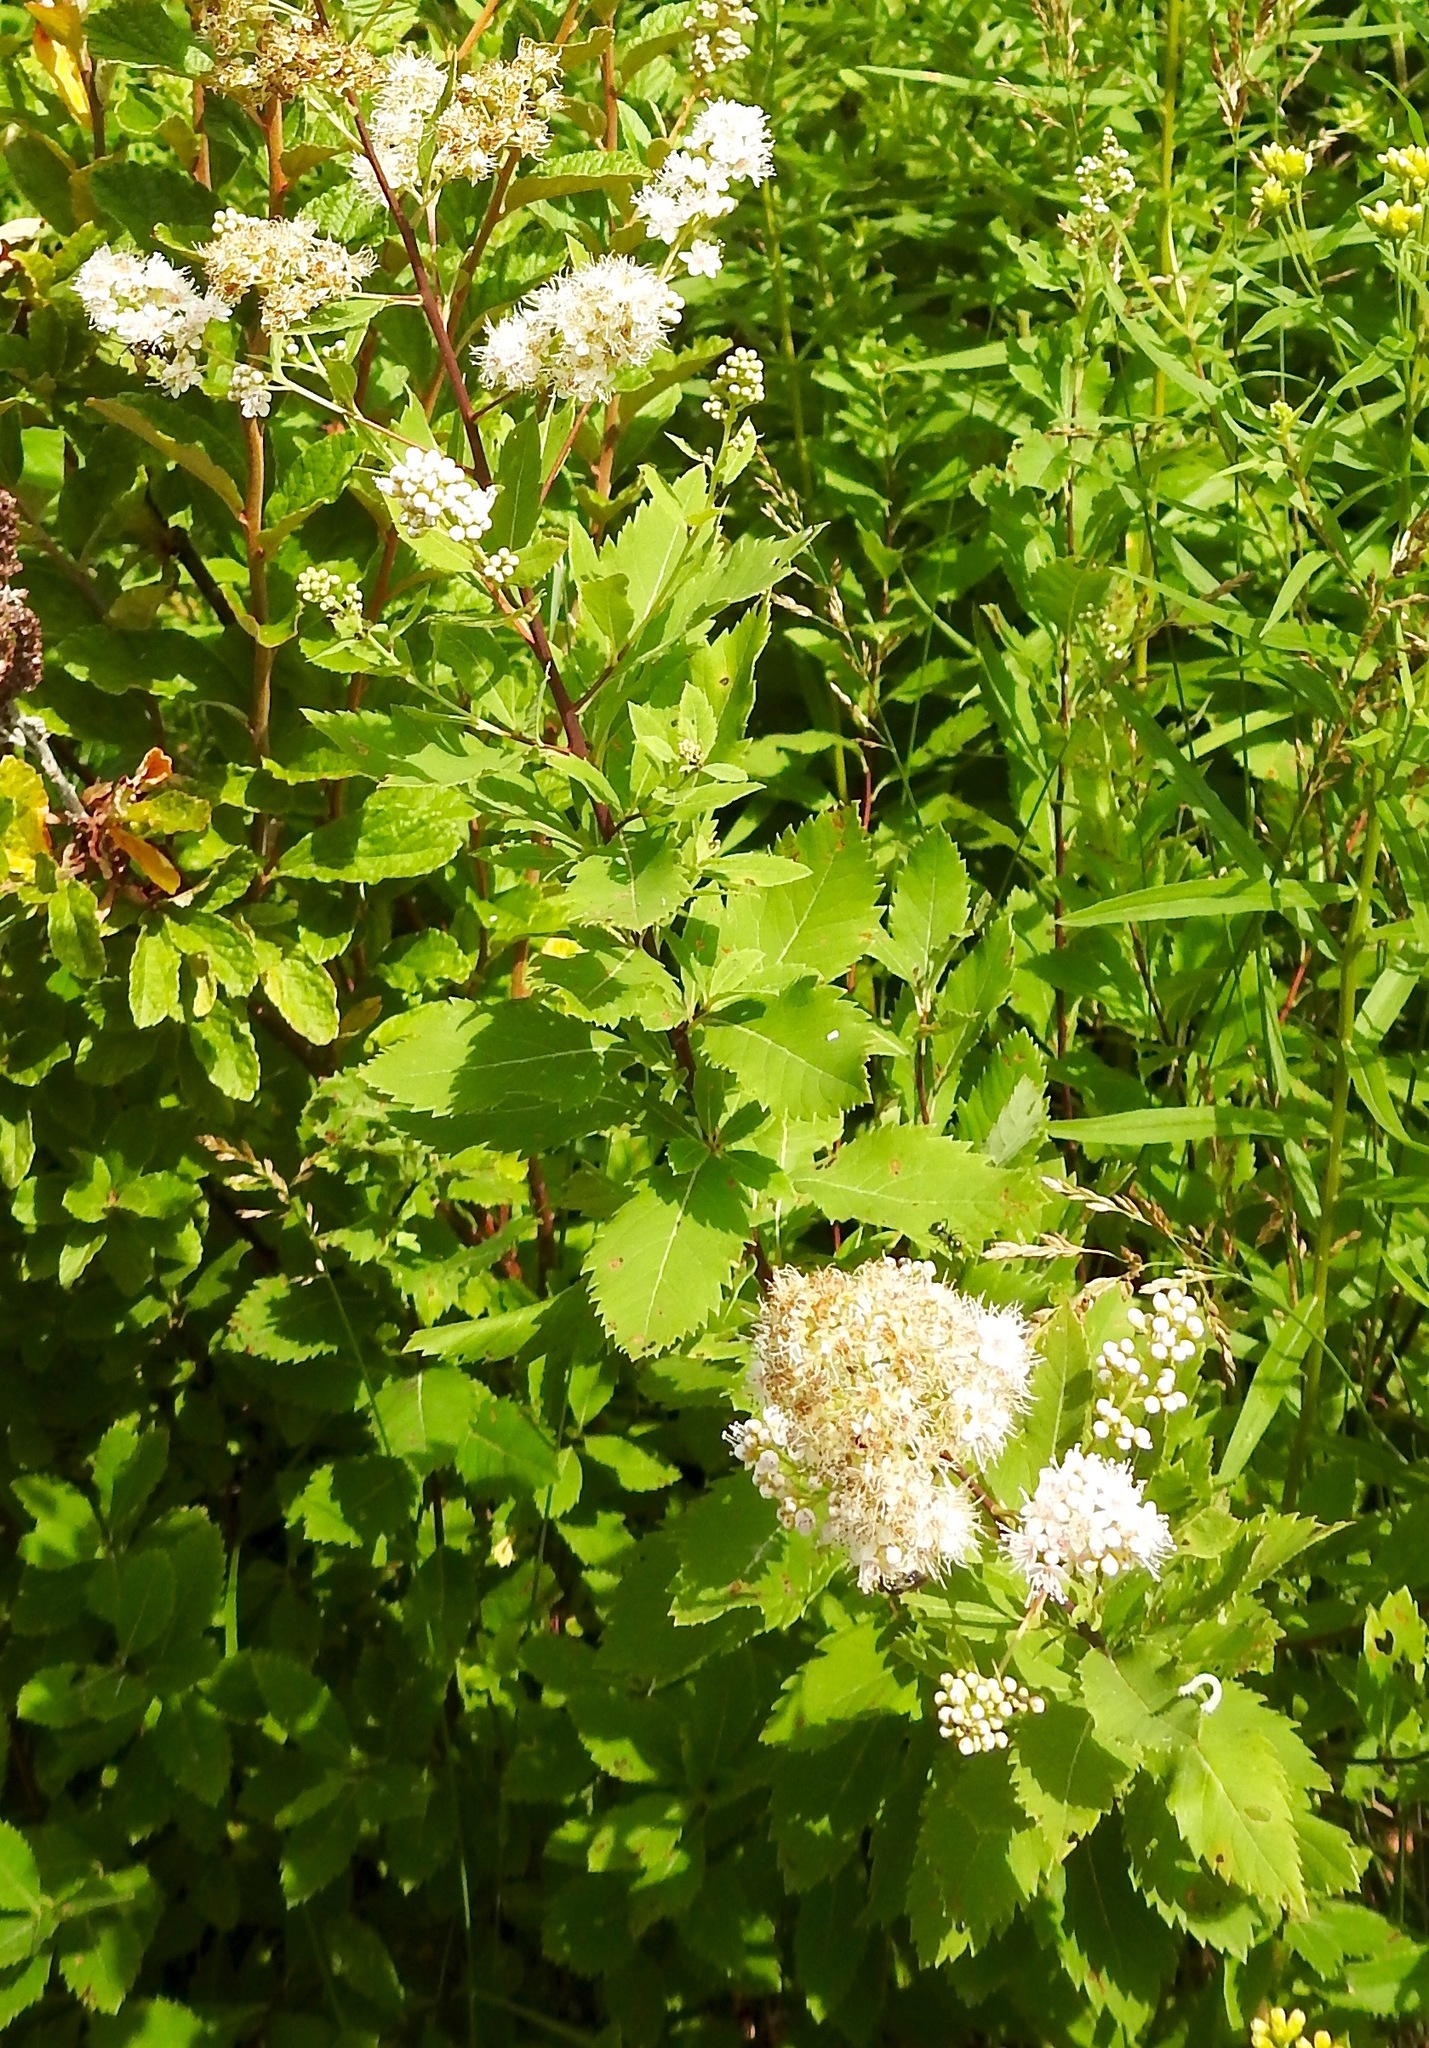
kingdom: Plantae
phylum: Tracheophyta
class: Magnoliopsida
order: Rosales
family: Rosaceae
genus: Spiraea
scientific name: Spiraea alba
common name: Pale bridewort
